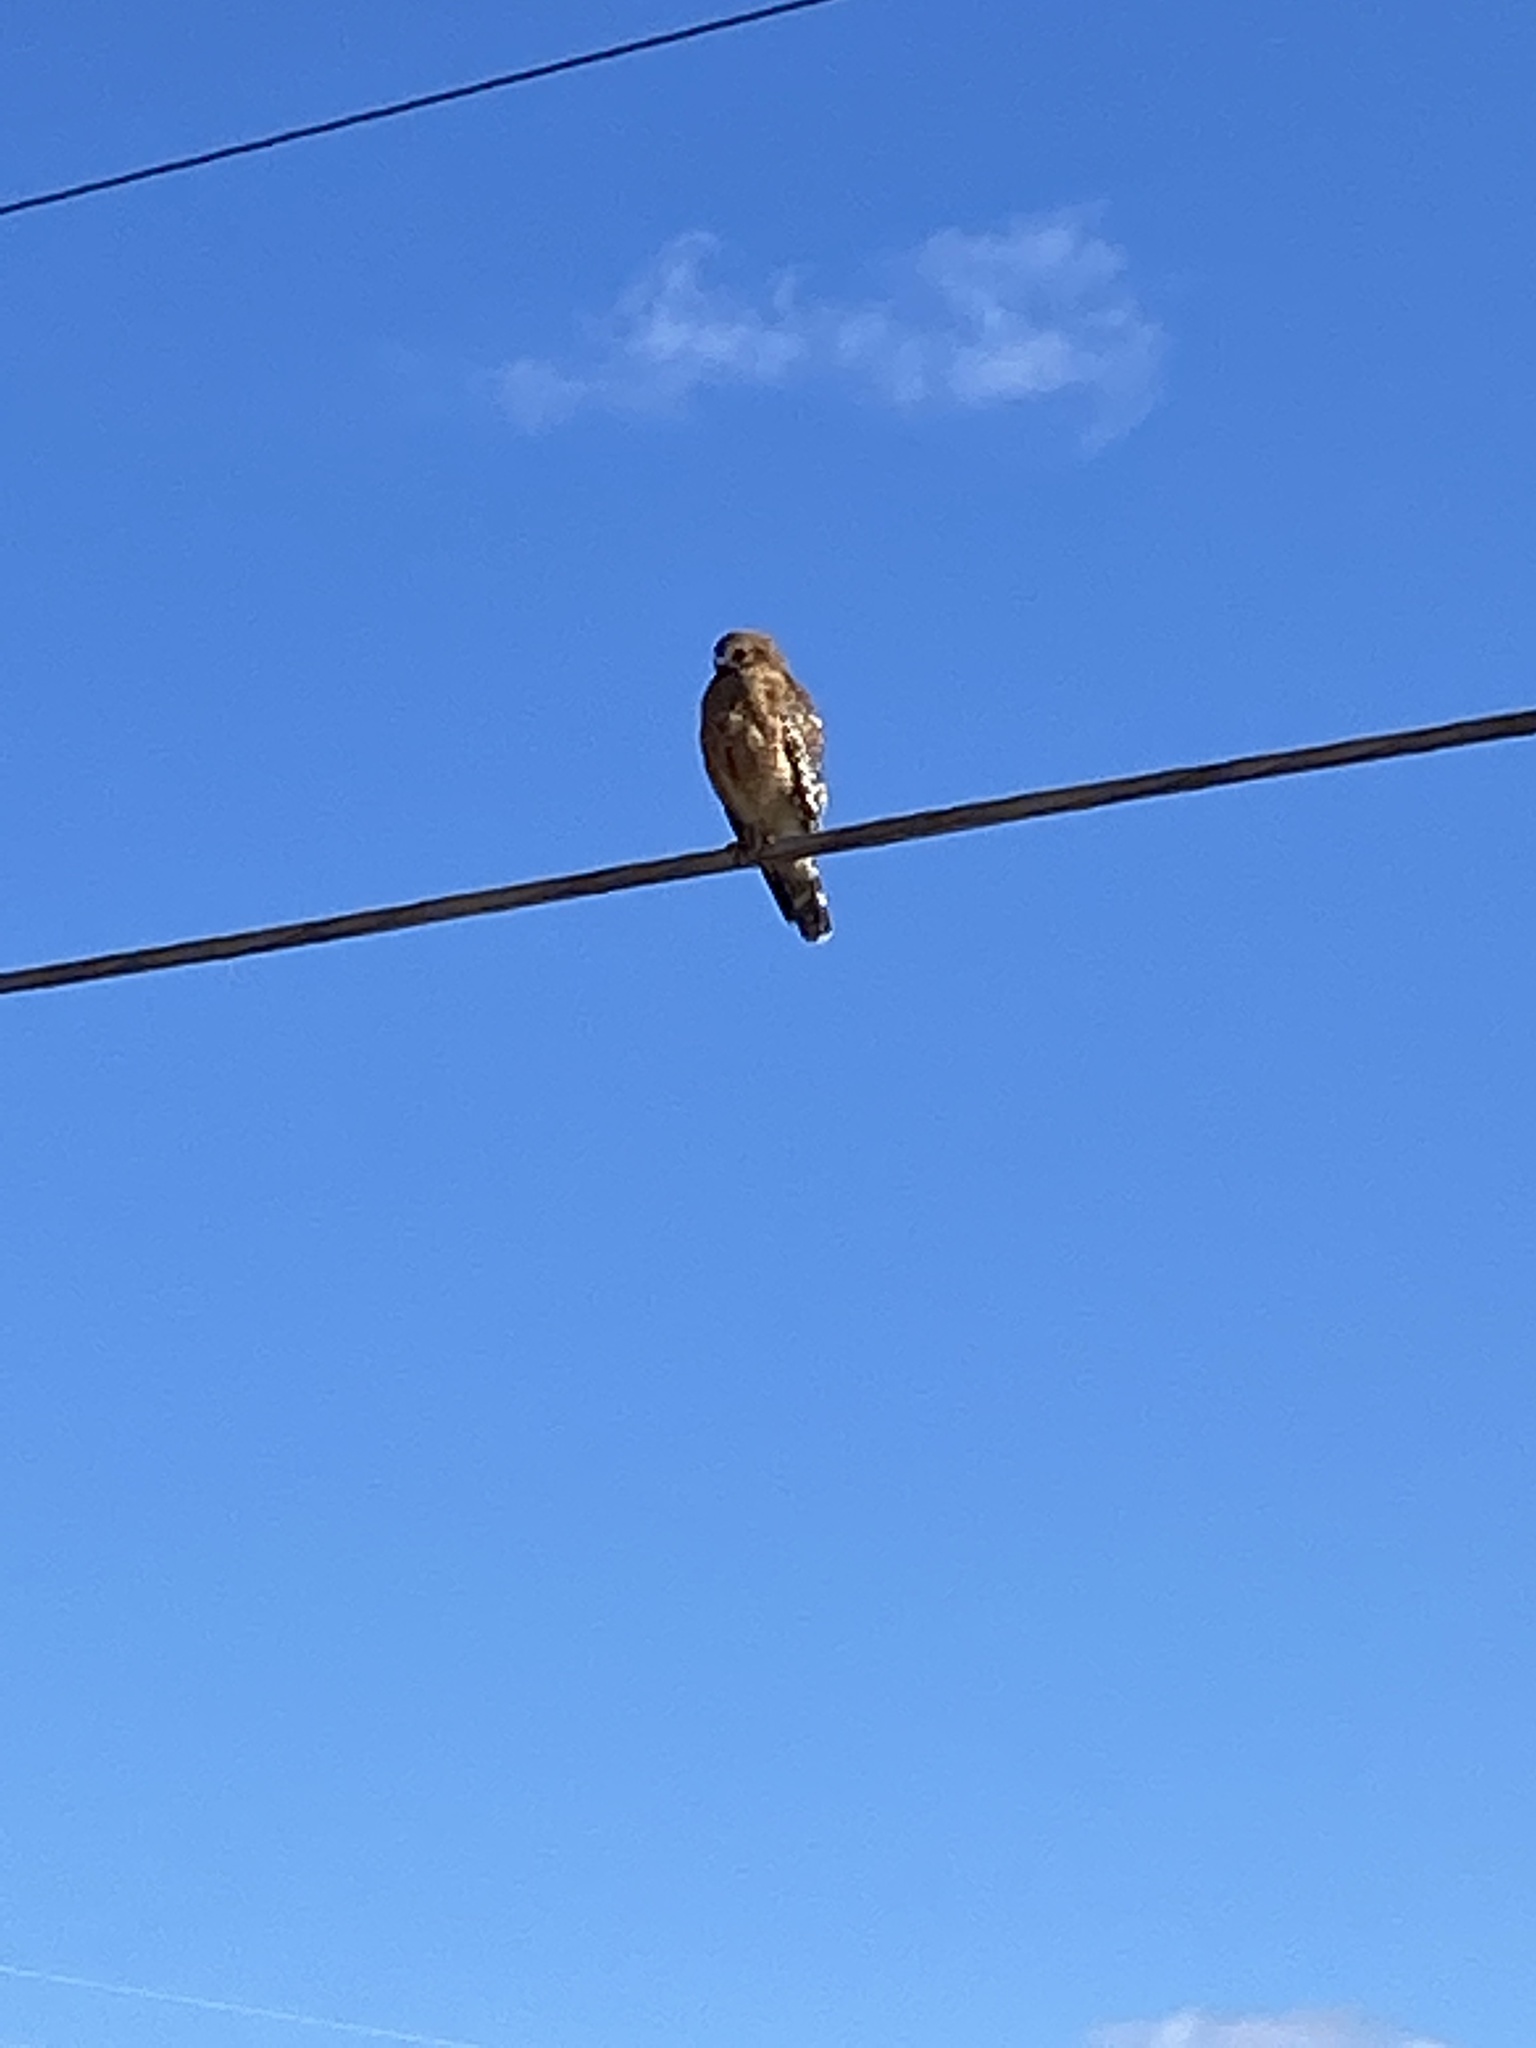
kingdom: Animalia
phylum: Chordata
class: Aves
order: Accipitriformes
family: Accipitridae
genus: Buteo
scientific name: Buteo lineatus
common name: Red-shouldered hawk
